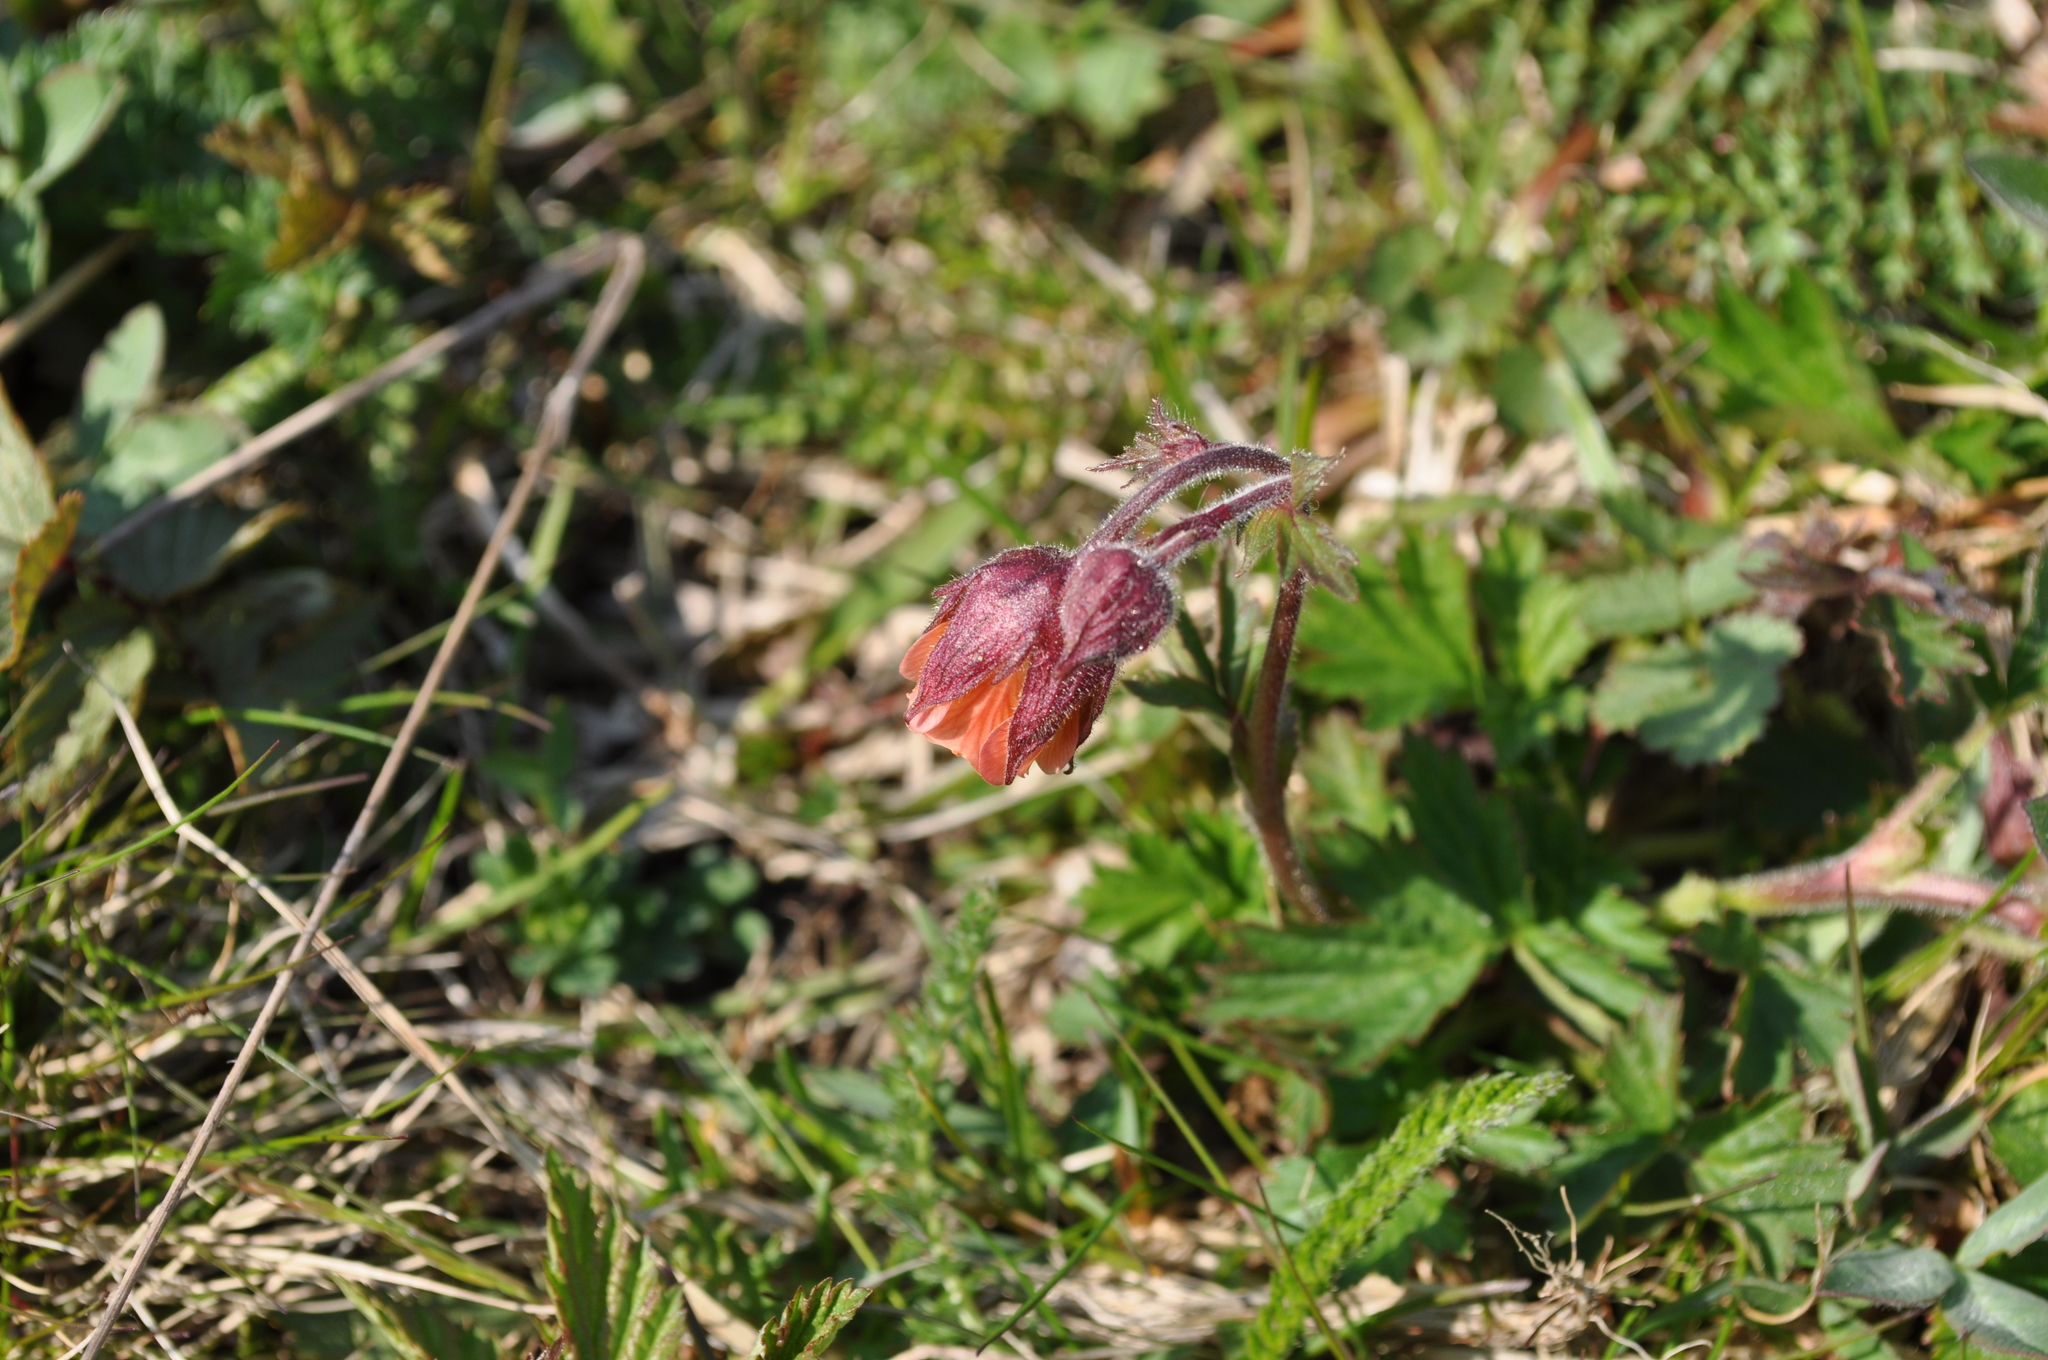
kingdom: Plantae
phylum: Tracheophyta
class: Magnoliopsida
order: Rosales
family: Rosaceae
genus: Geum
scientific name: Geum rivale
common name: Water avens
